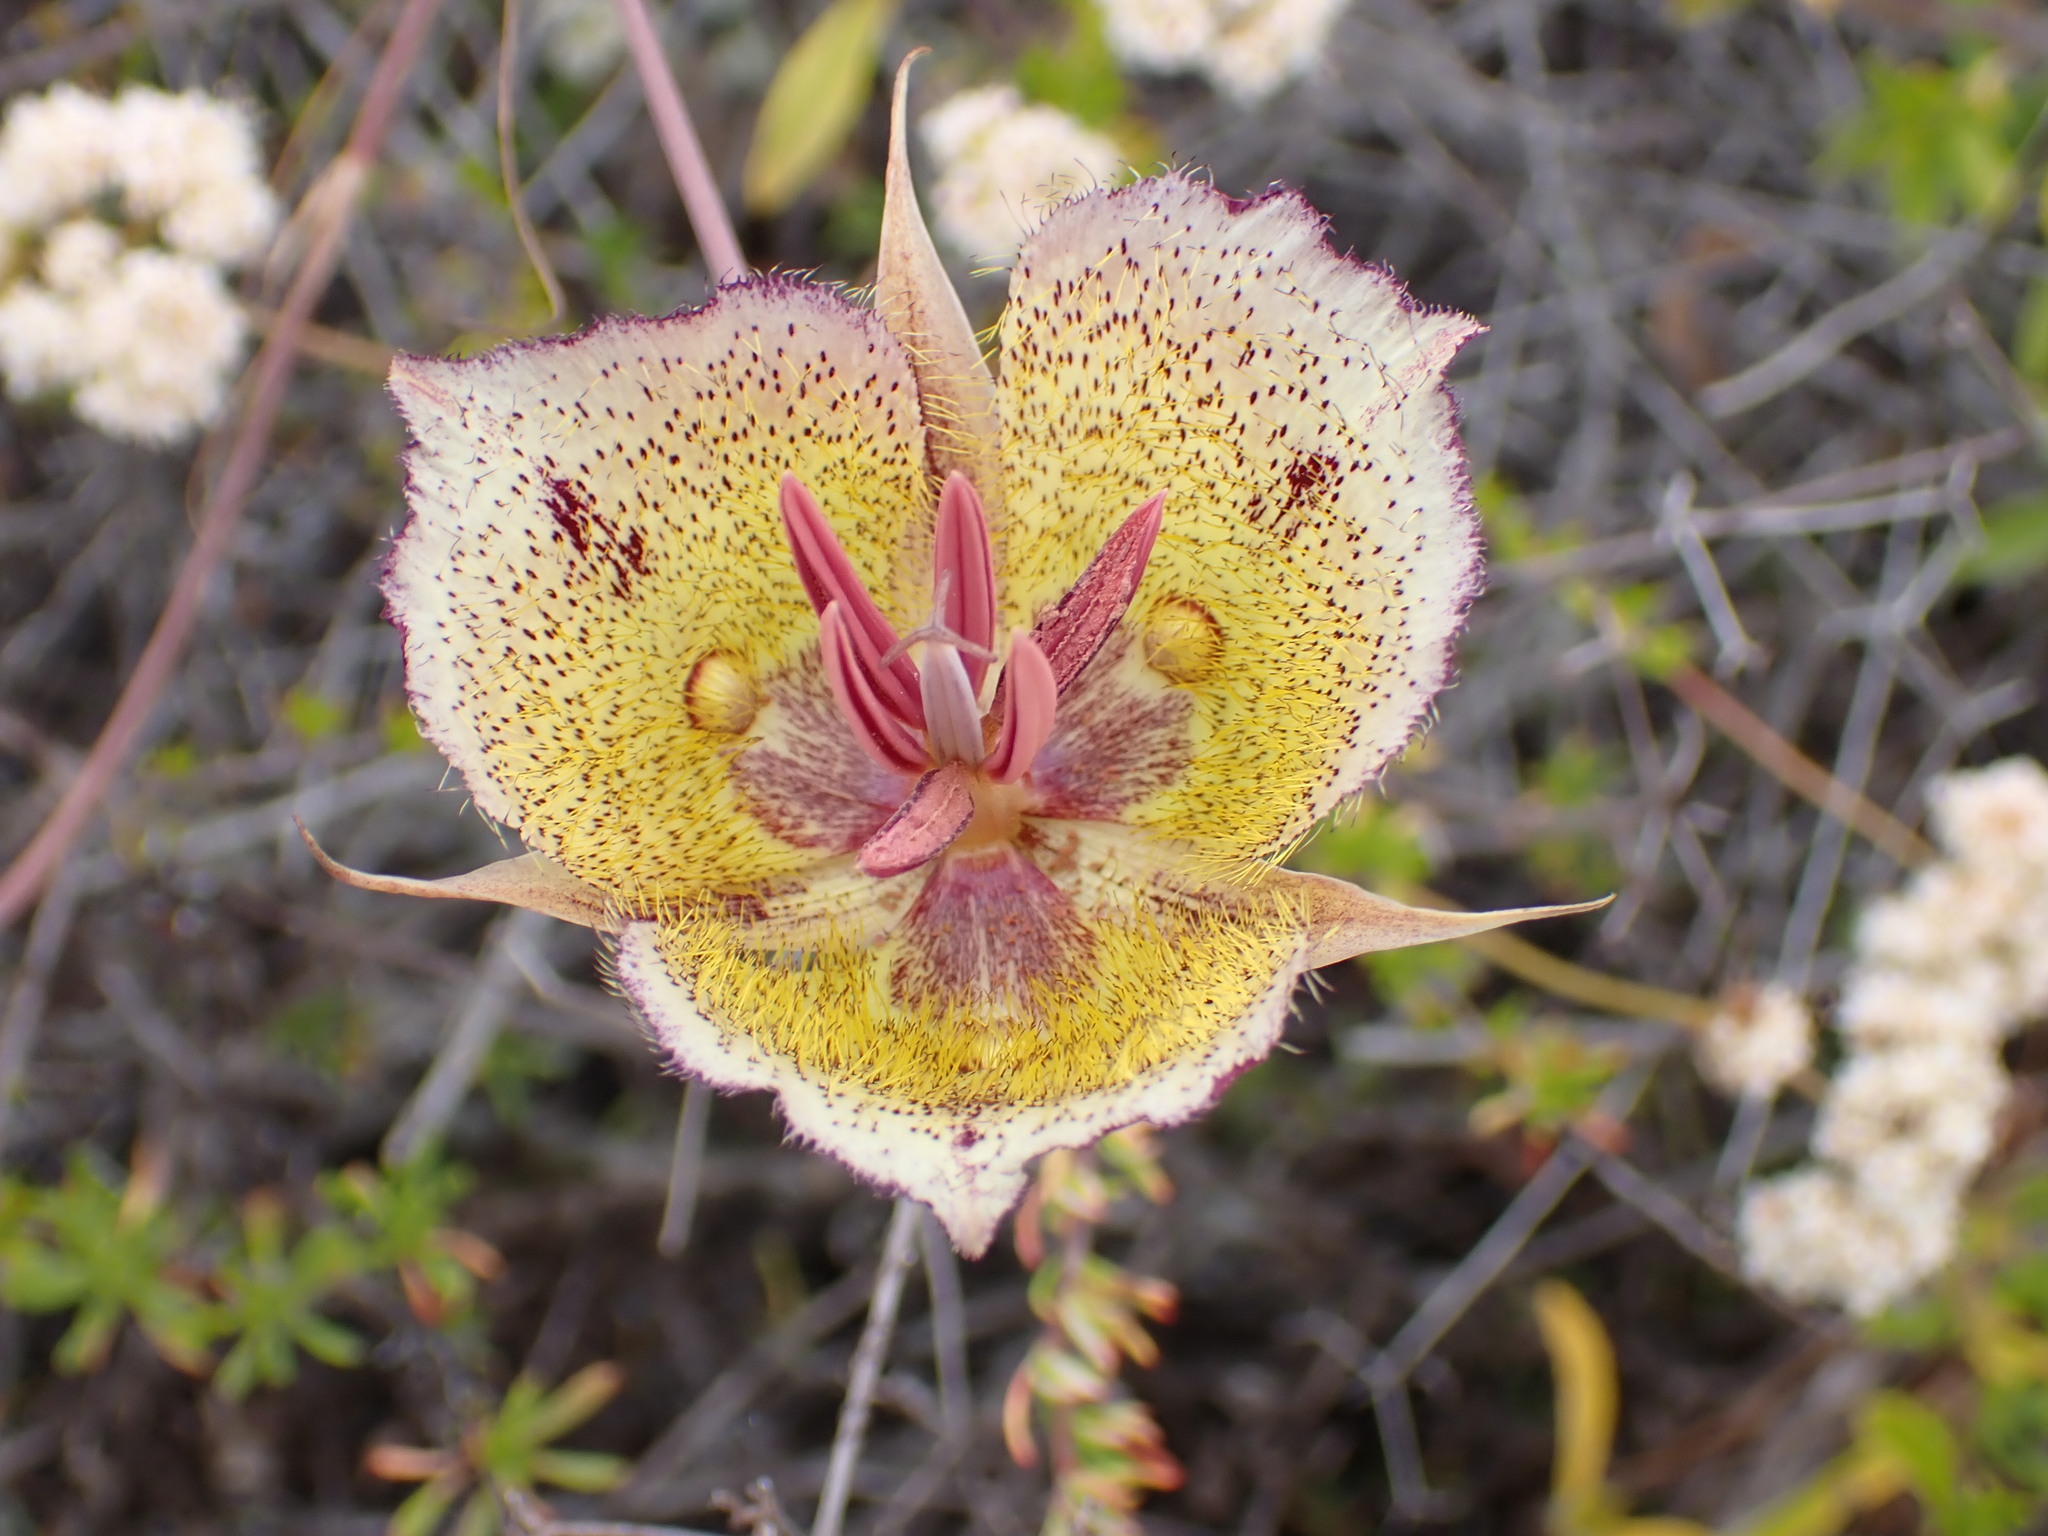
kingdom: Plantae
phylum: Tracheophyta
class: Liliopsida
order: Liliales
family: Liliaceae
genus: Calochortus
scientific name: Calochortus weedii
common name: Weed's mariposa-lily
